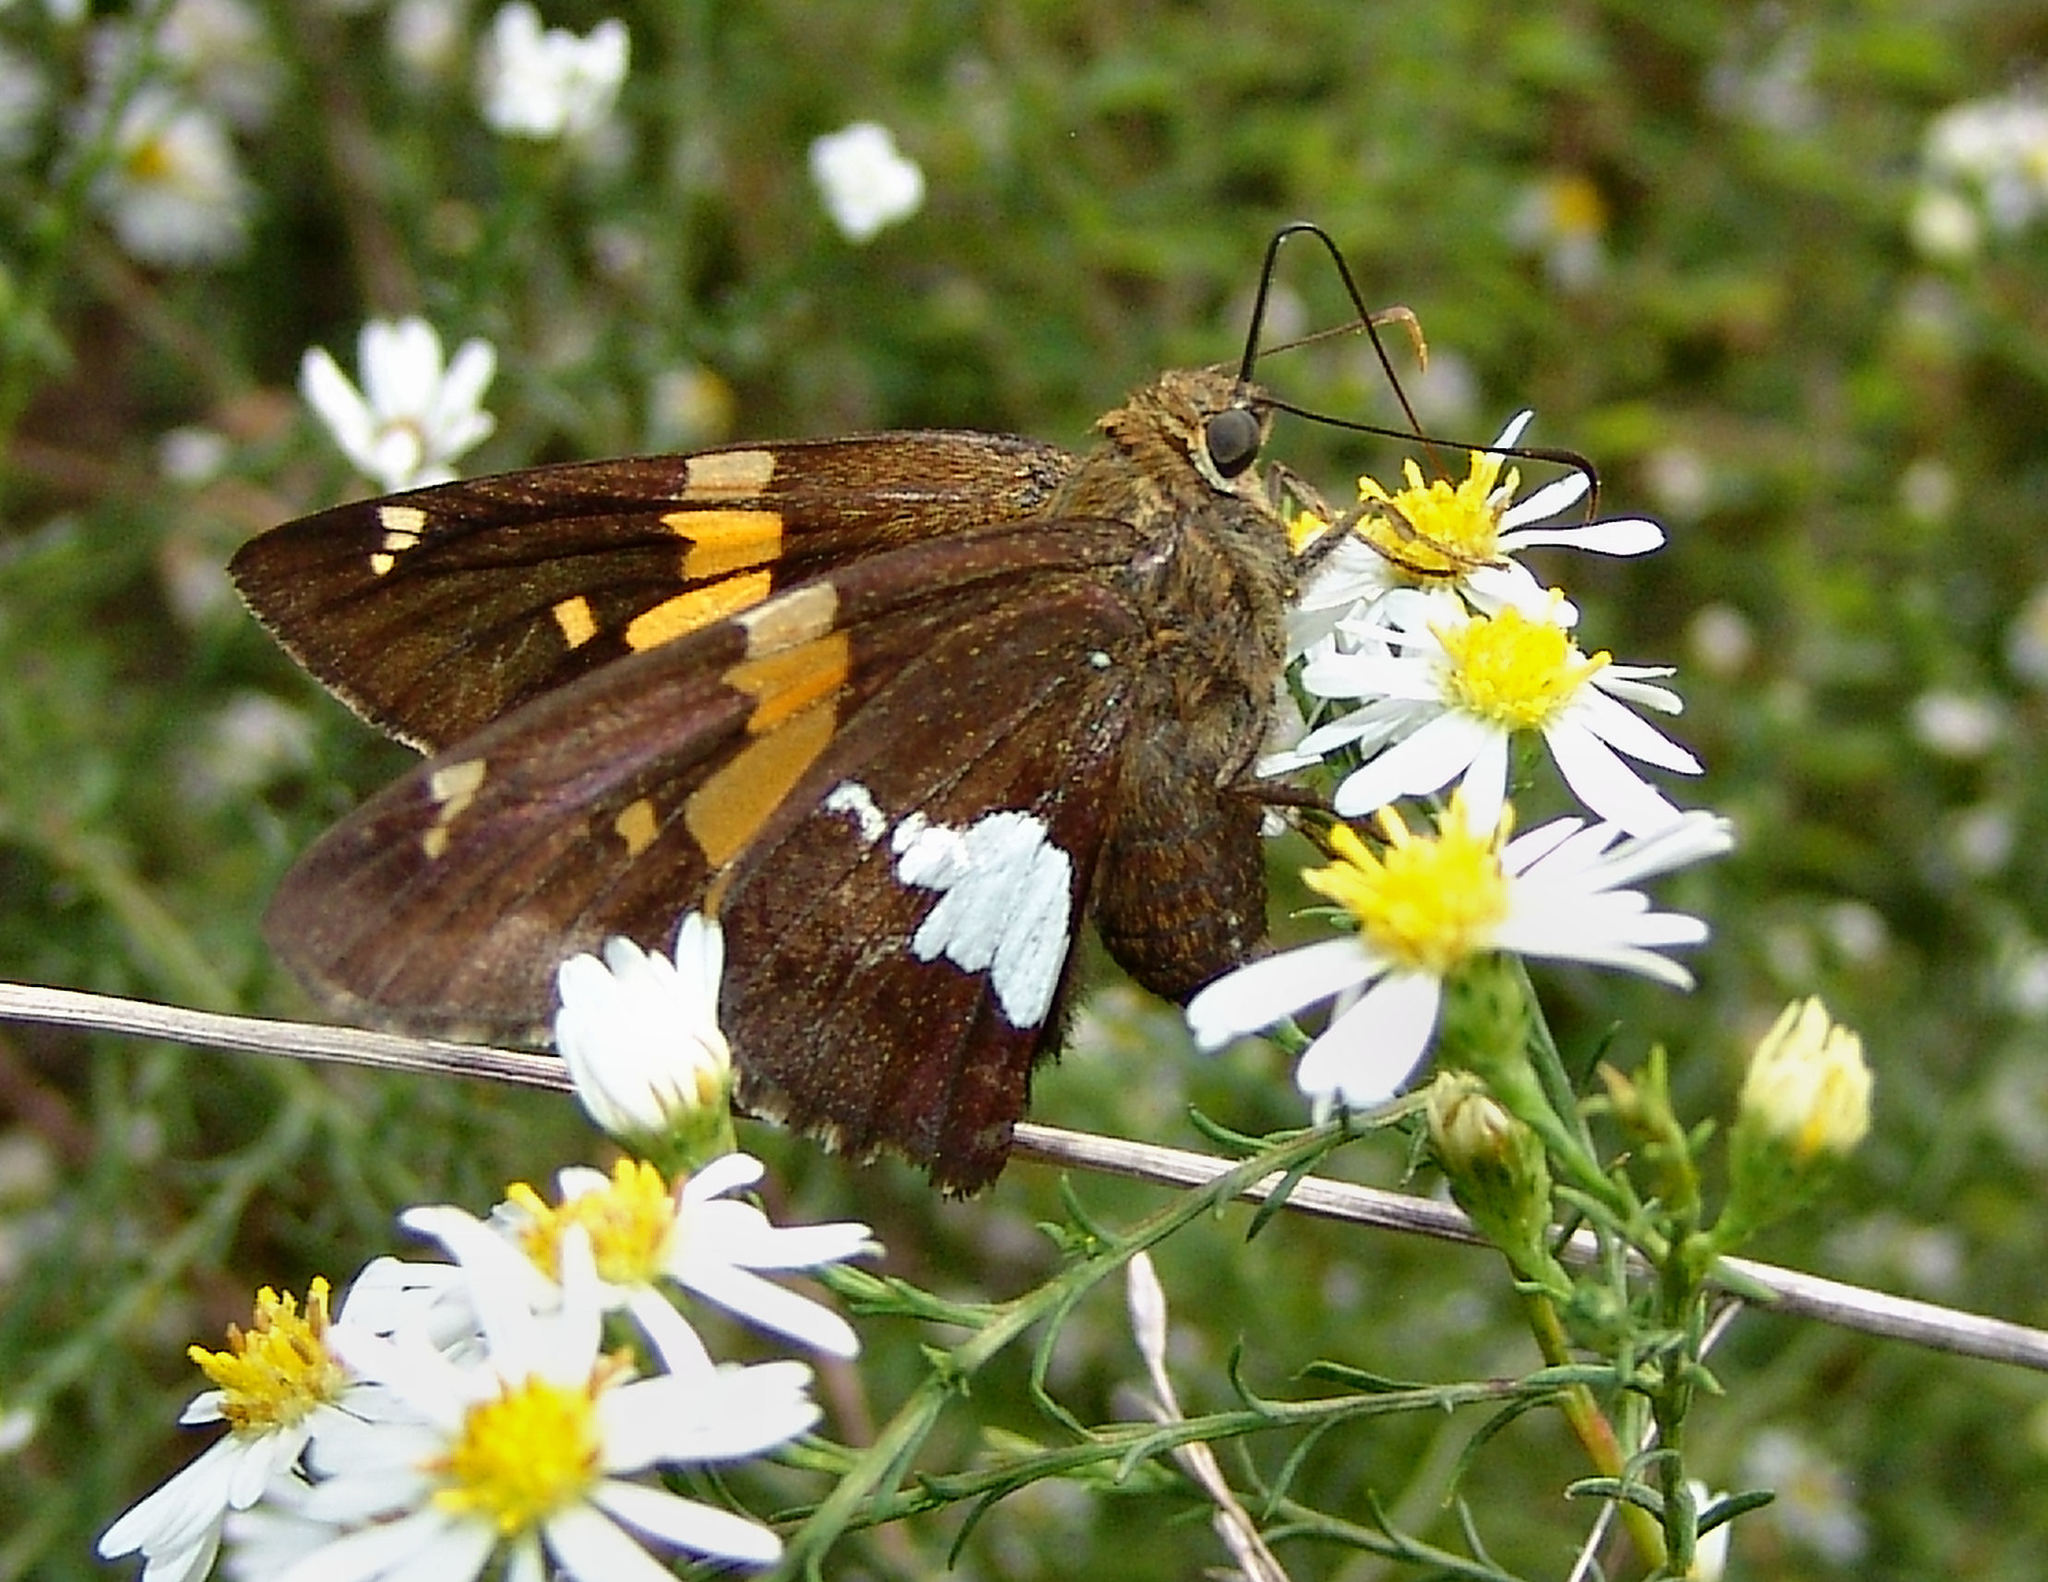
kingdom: Animalia
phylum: Arthropoda
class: Insecta
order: Lepidoptera
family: Hesperiidae
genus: Epargyreus
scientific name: Epargyreus clarus
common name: Silver-spotted skipper
